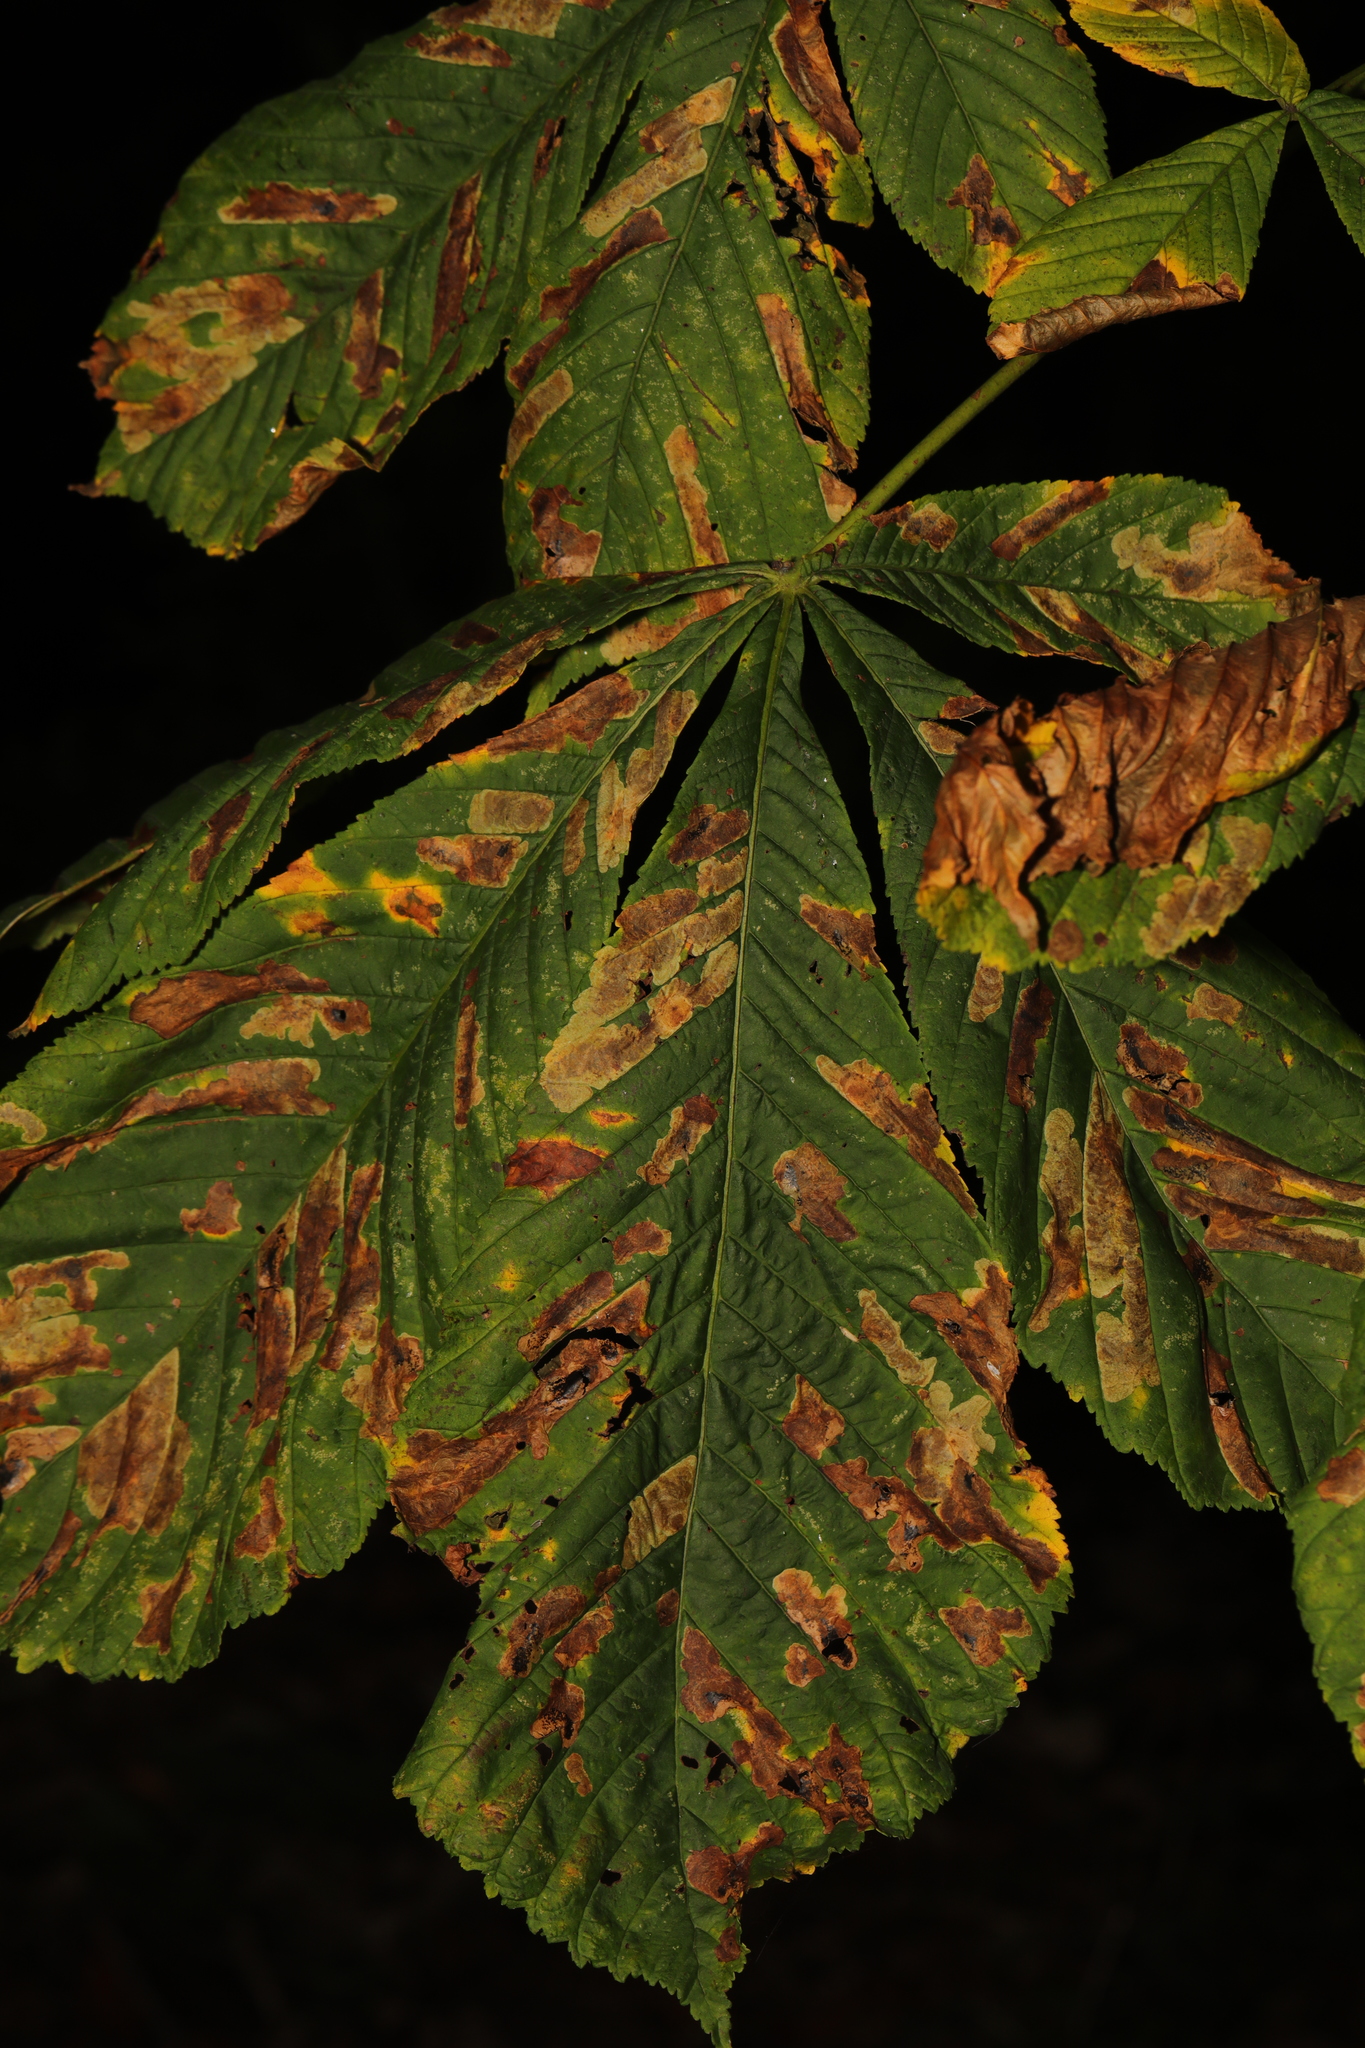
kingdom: Plantae
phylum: Tracheophyta
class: Magnoliopsida
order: Sapindales
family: Sapindaceae
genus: Aesculus
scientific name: Aesculus hippocastanum
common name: Horse-chestnut
